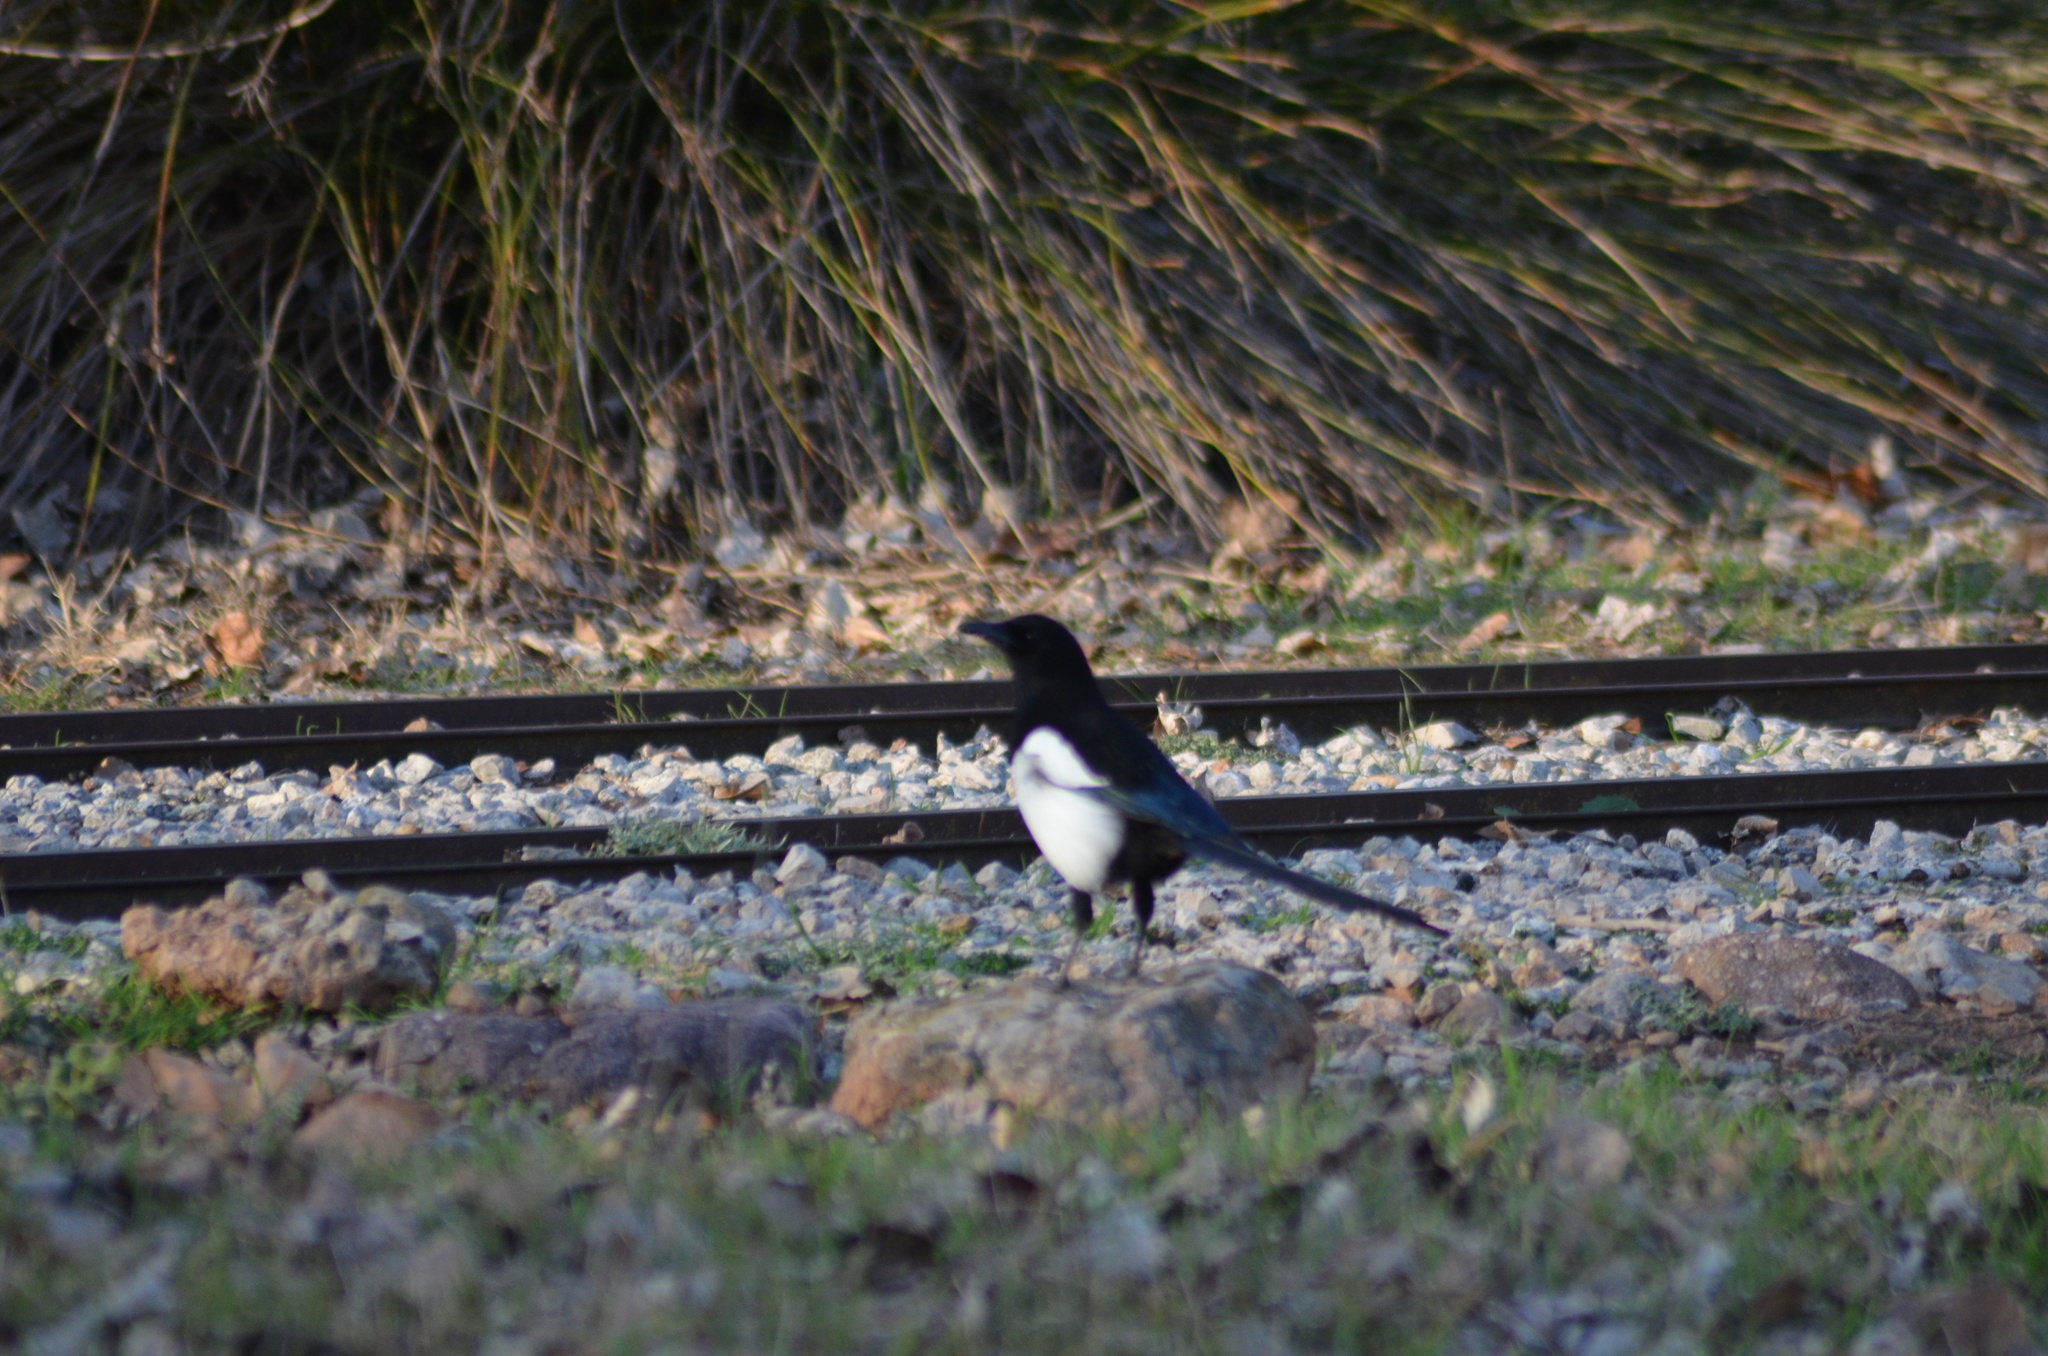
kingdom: Animalia
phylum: Chordata
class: Aves
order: Passeriformes
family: Corvidae
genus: Pica
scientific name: Pica pica
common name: Eurasian magpie
